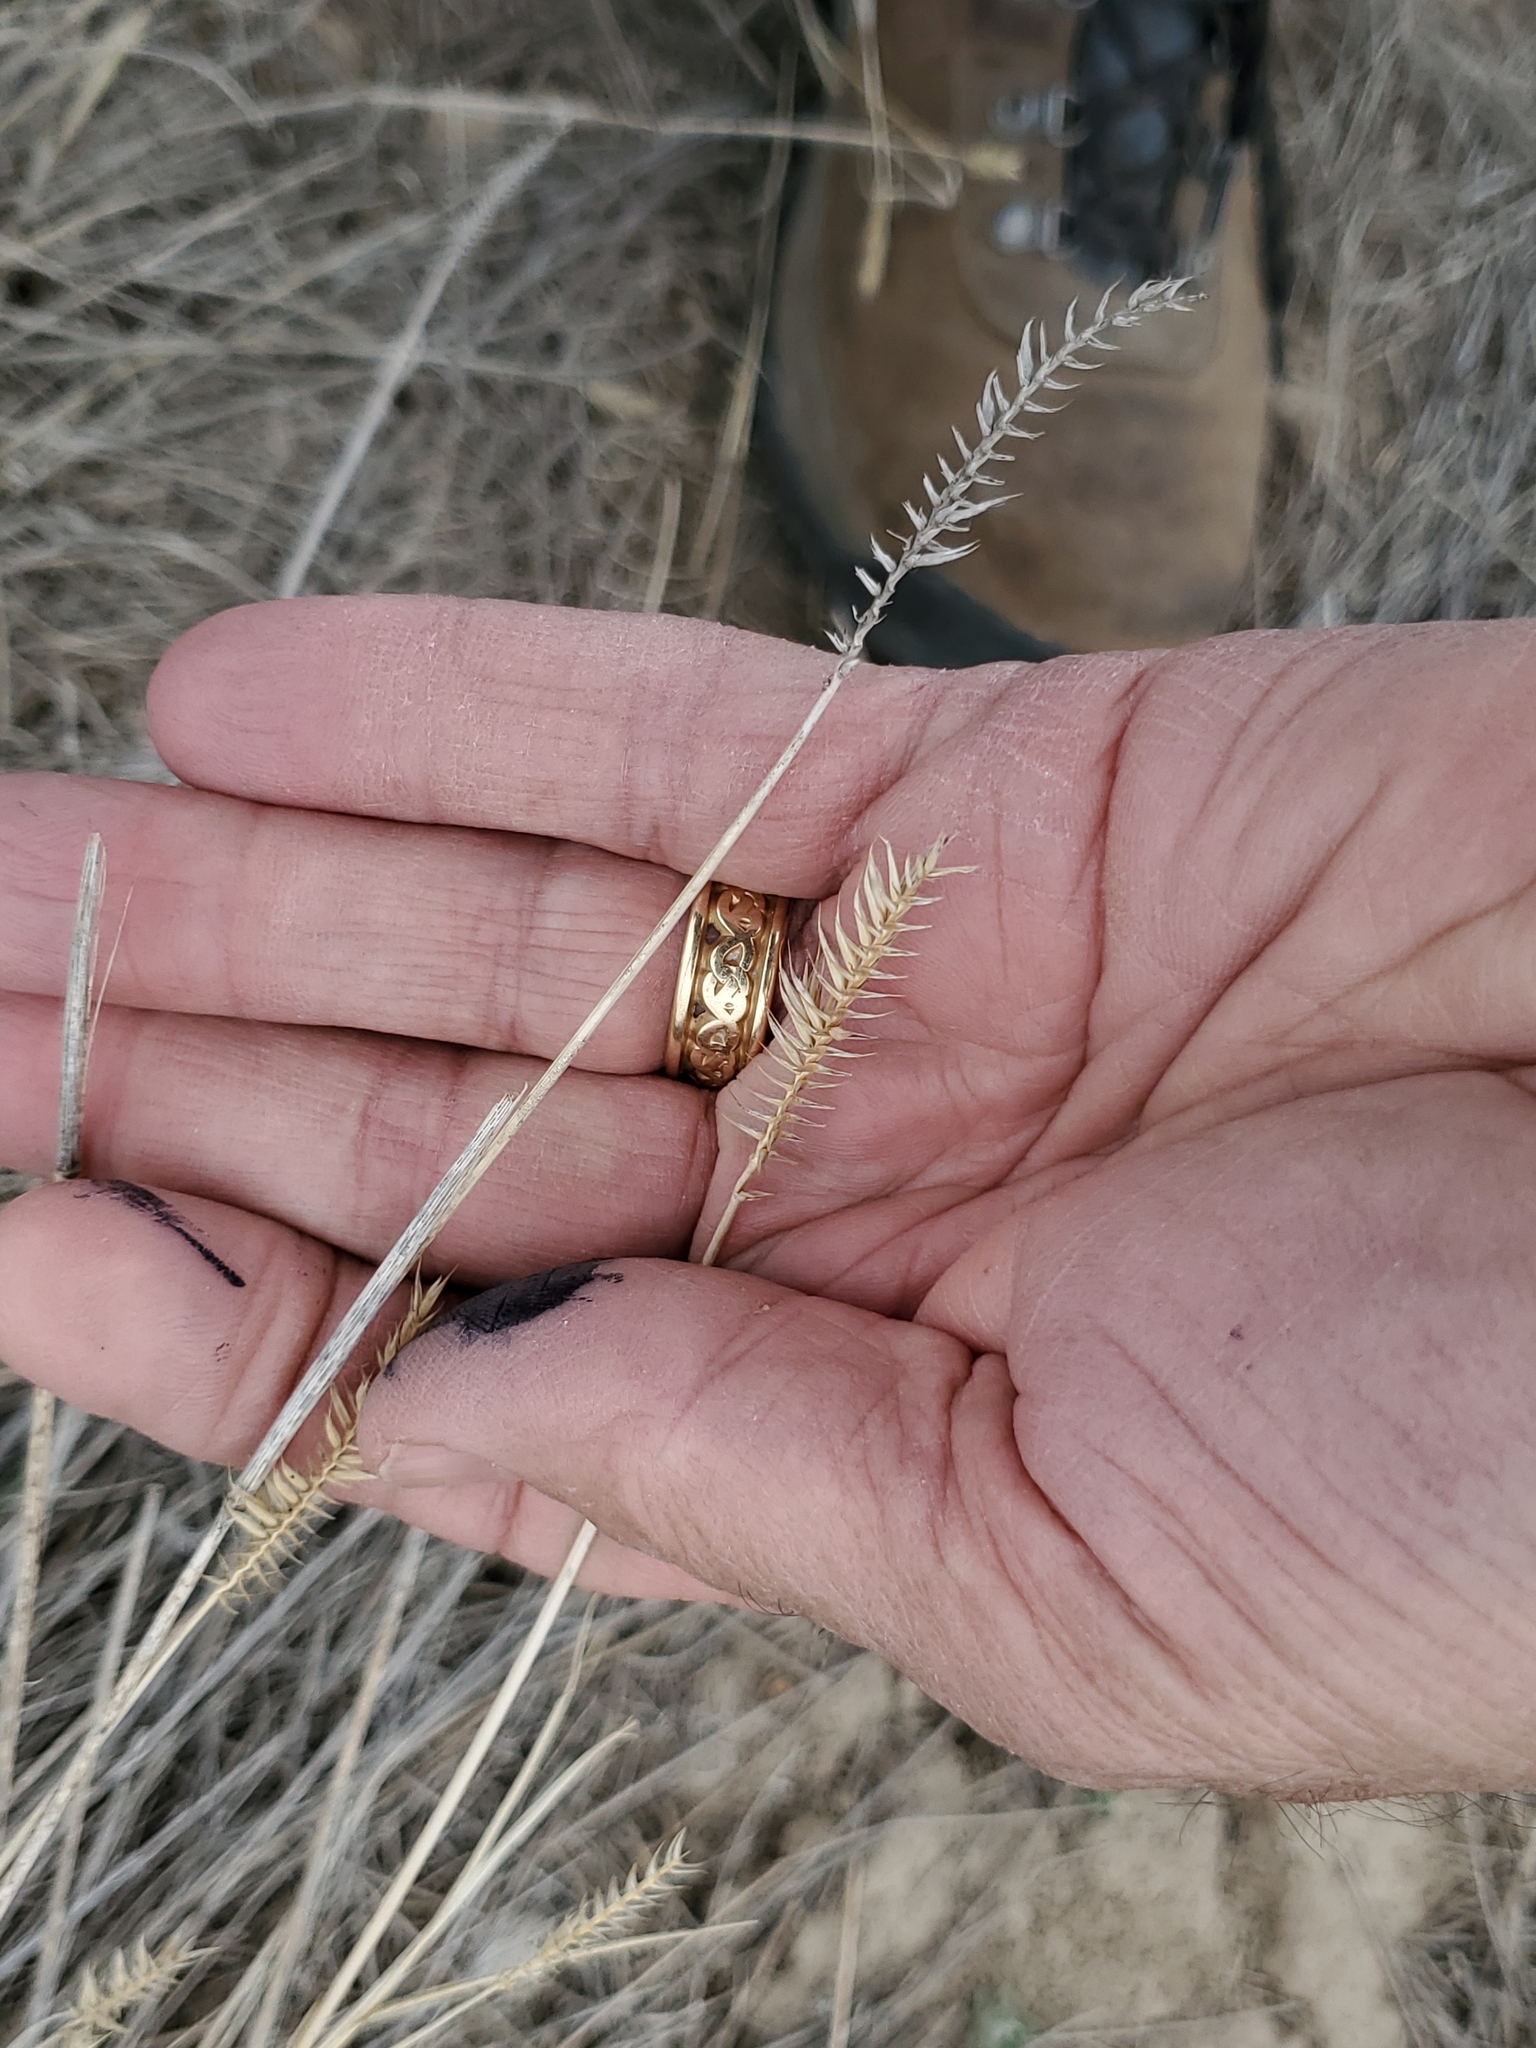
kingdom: Plantae
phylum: Tracheophyta
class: Liliopsida
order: Poales
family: Poaceae
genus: Agropyron
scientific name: Agropyron cristatum
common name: Crested wheatgrass
